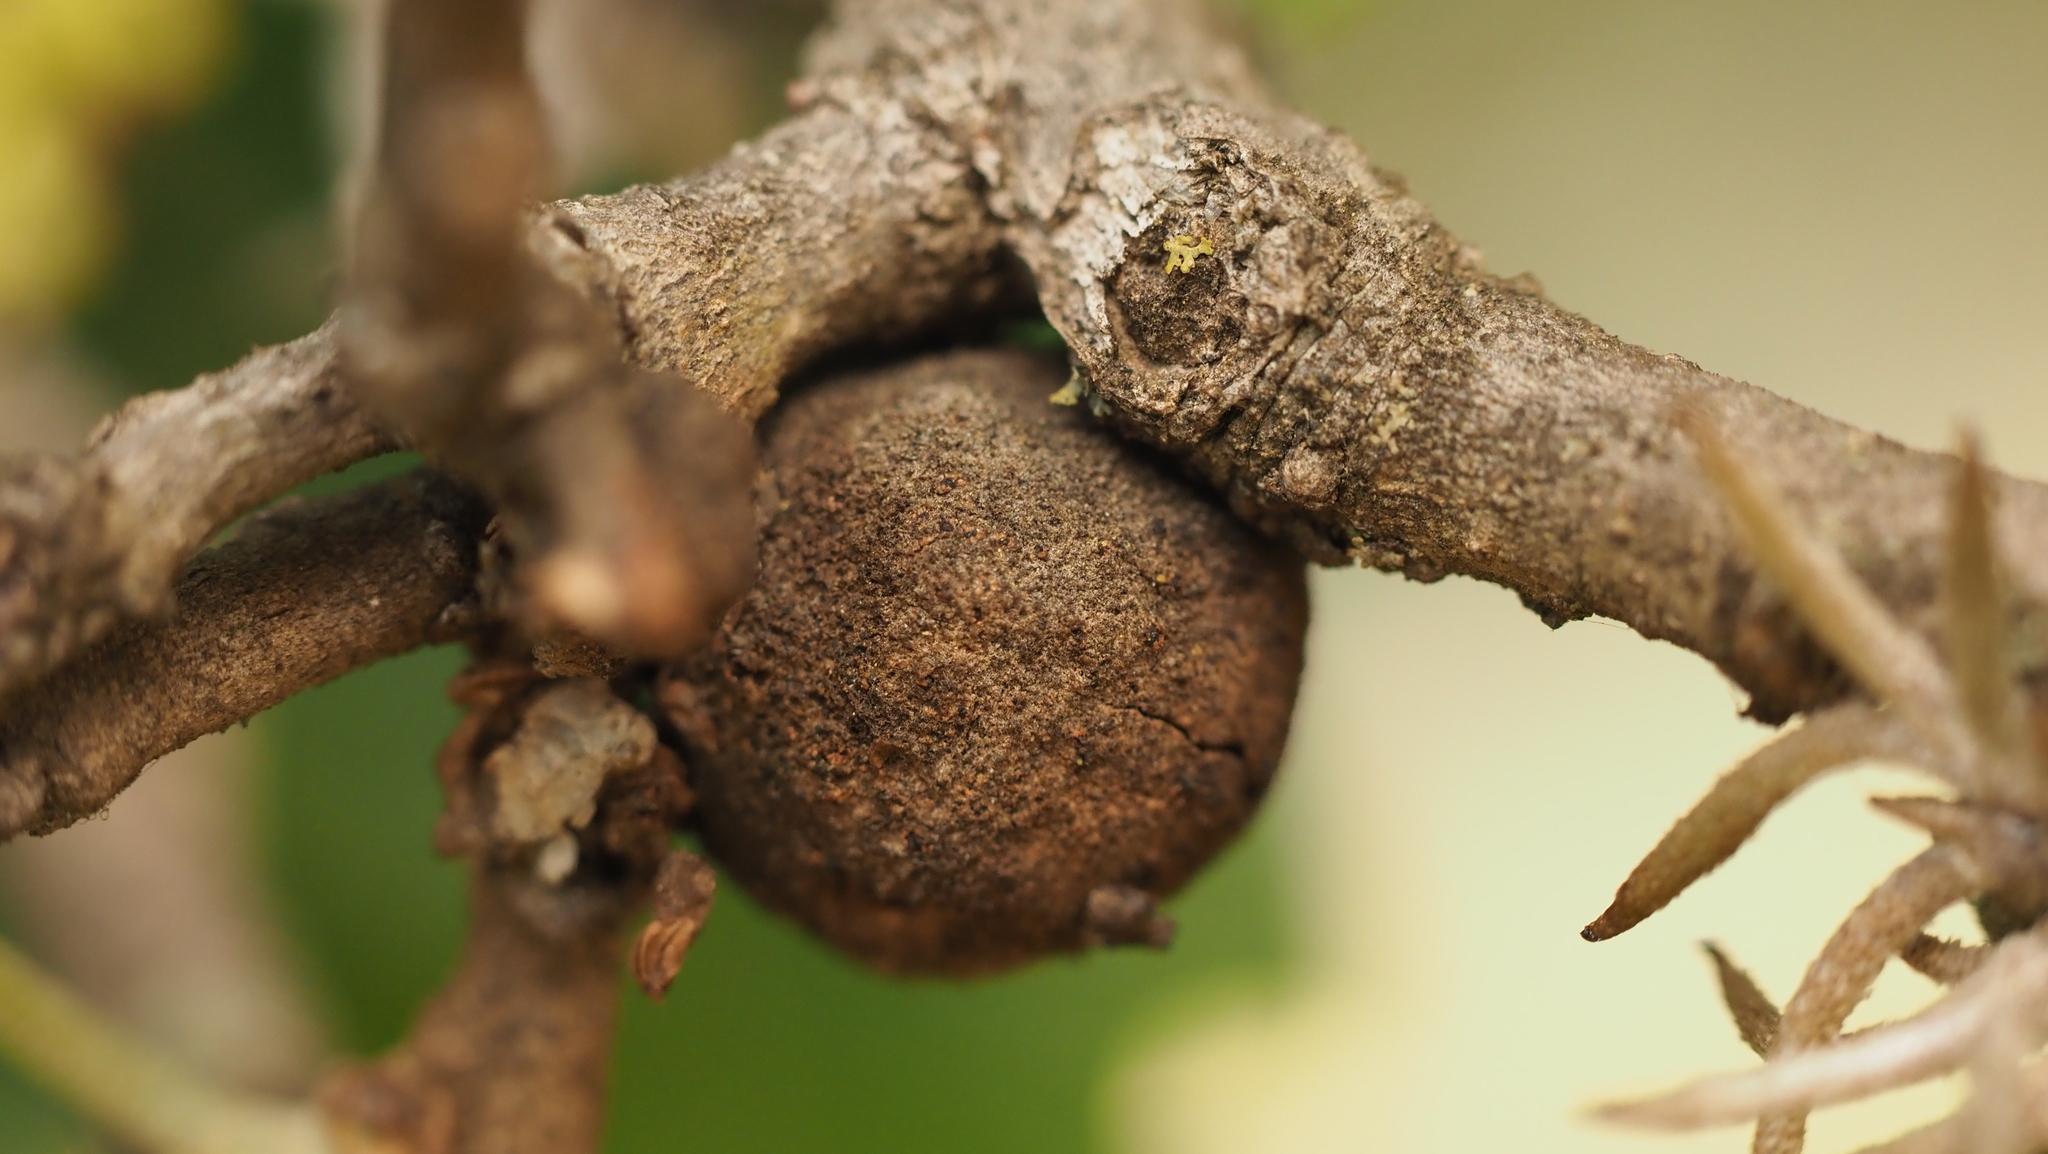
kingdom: Animalia
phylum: Arthropoda
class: Insecta
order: Hymenoptera
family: Cynipidae
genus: Disholcaspis
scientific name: Disholcaspis
